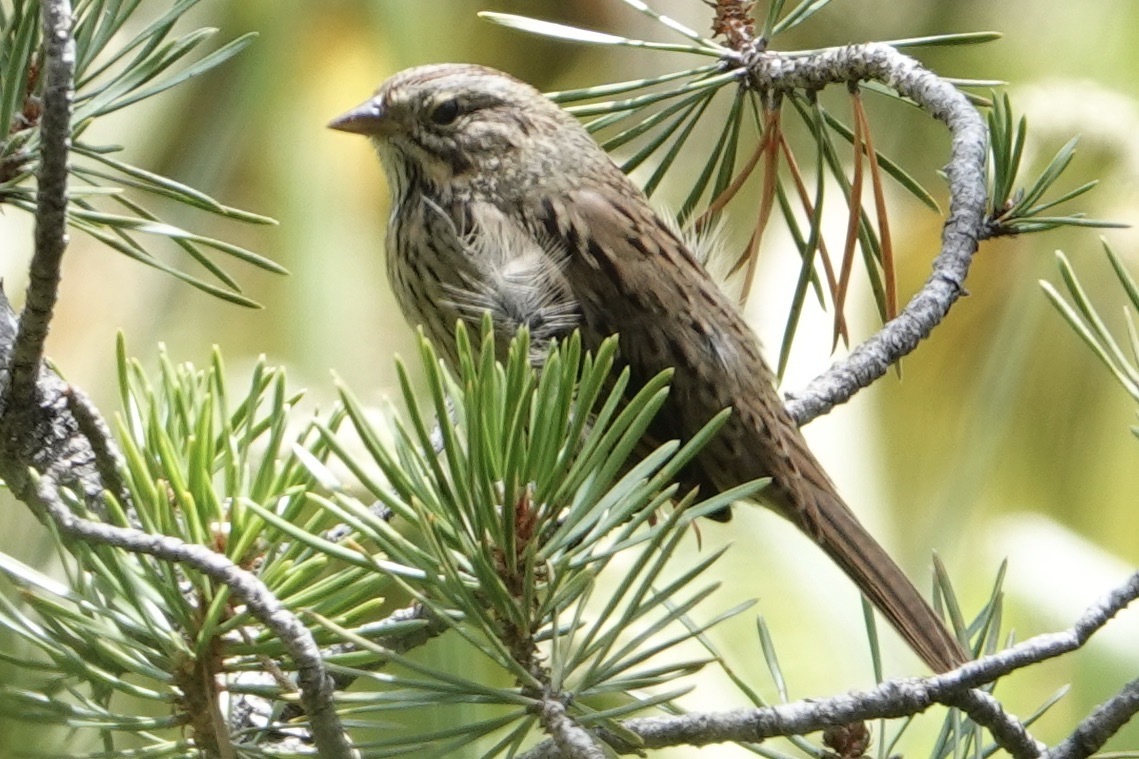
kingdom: Animalia
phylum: Chordata
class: Aves
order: Passeriformes
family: Passerellidae
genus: Melospiza
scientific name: Melospiza lincolnii
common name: Lincoln's sparrow
